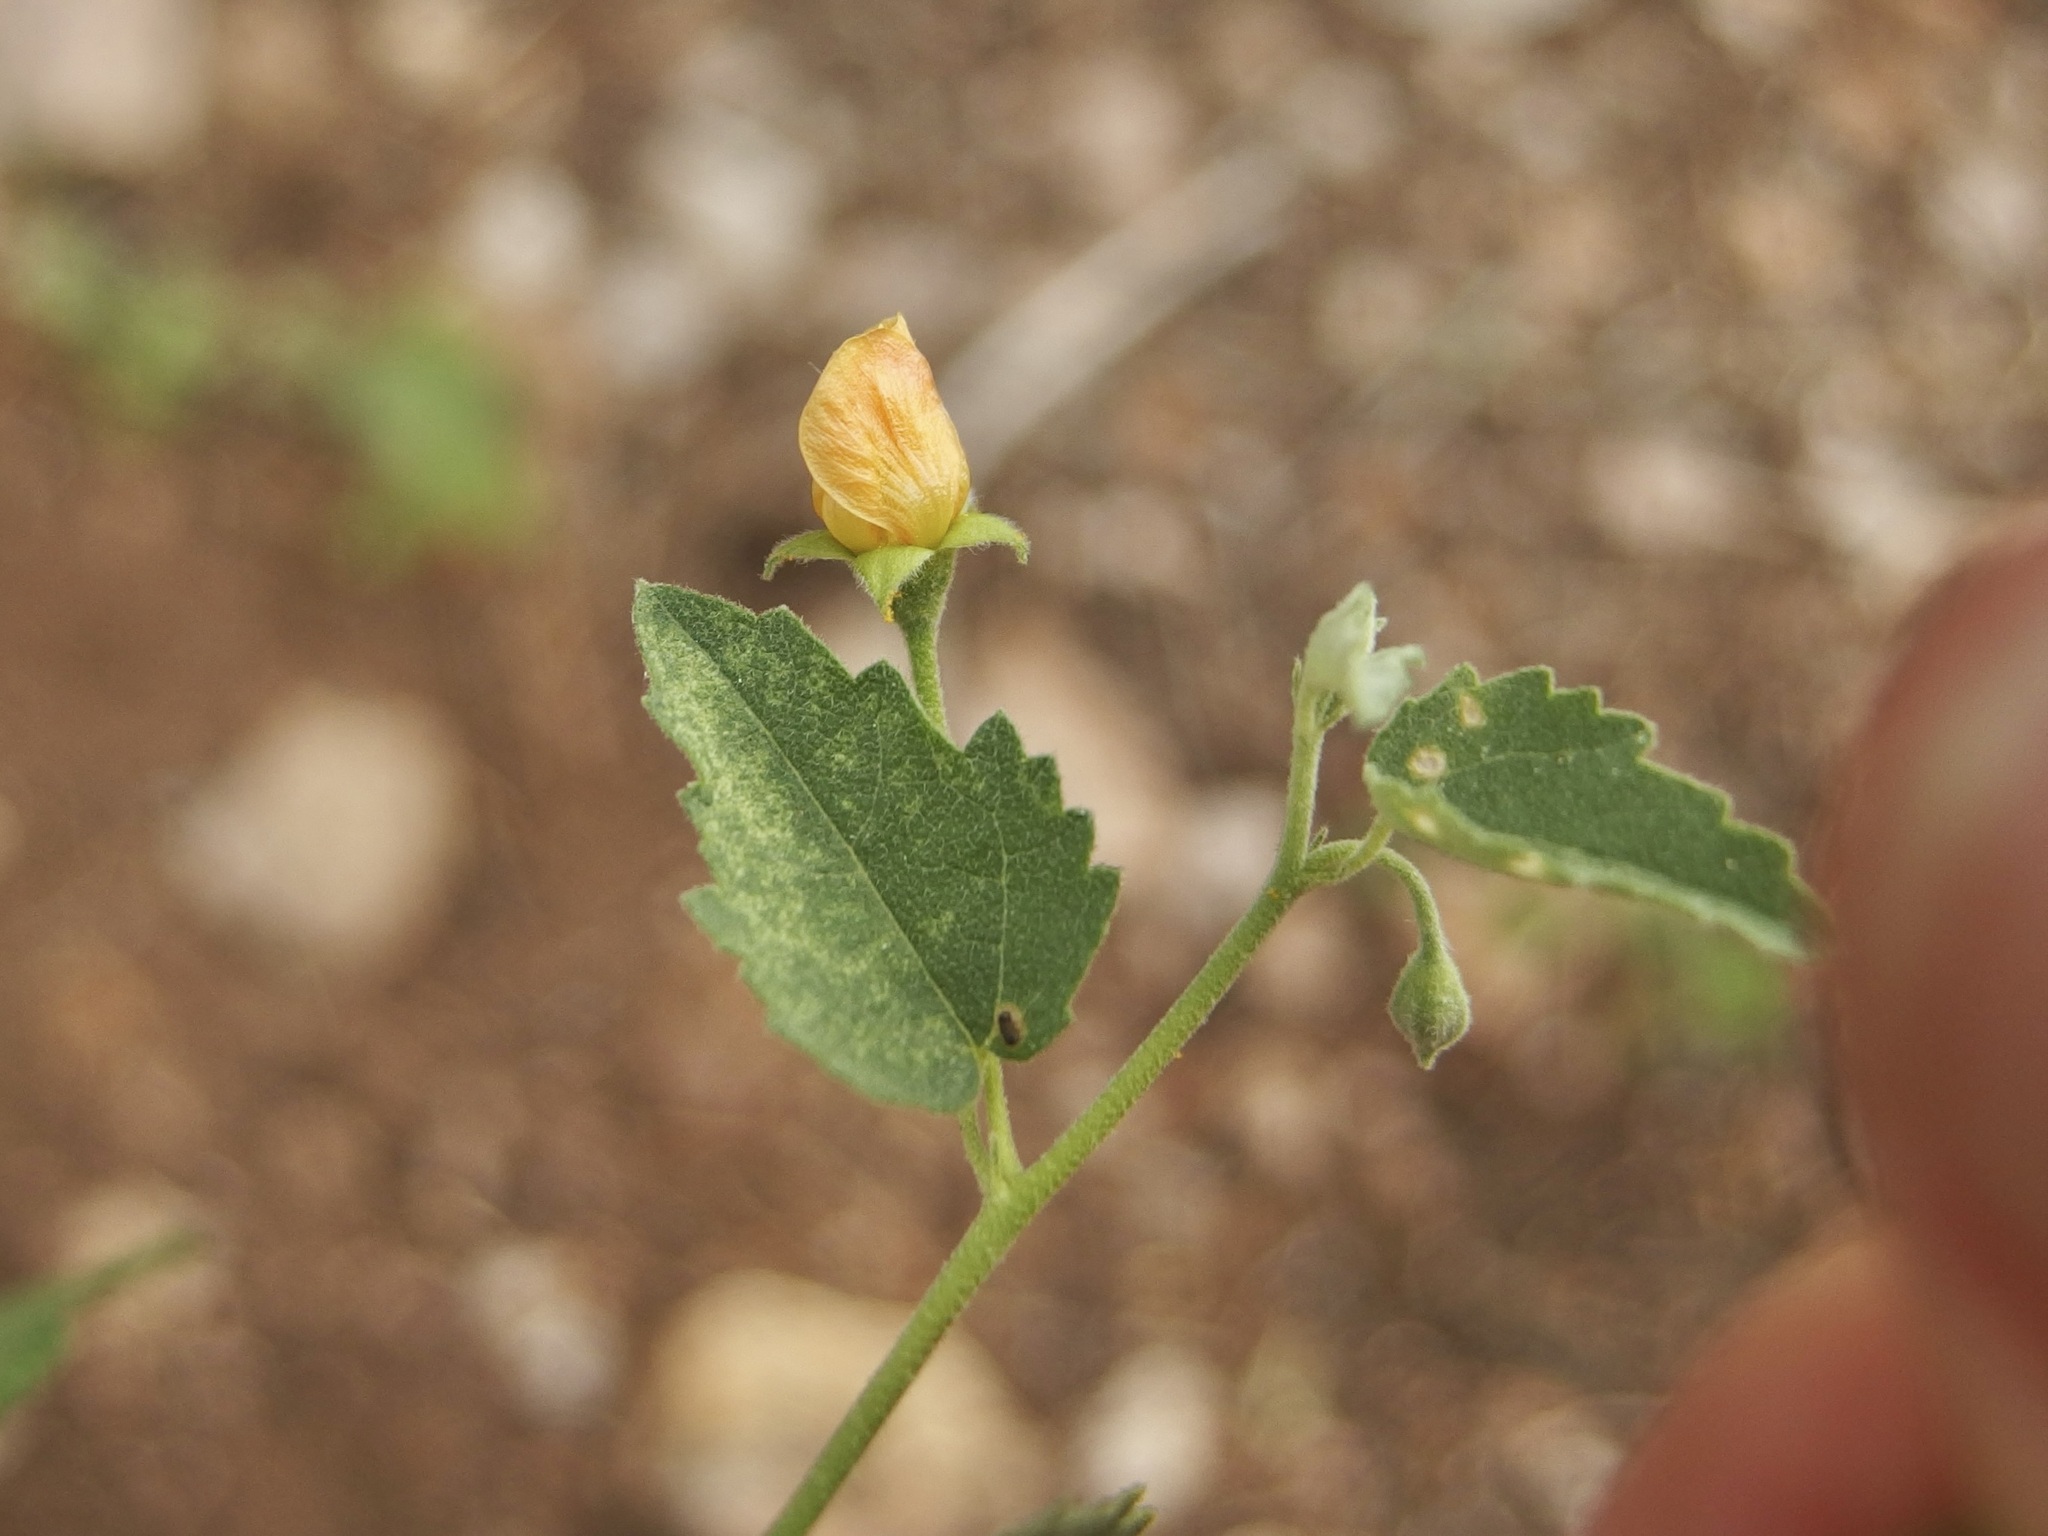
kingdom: Plantae
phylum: Tracheophyta
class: Magnoliopsida
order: Malvales
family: Malvaceae
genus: Abutilon
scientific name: Abutilon parvulum
